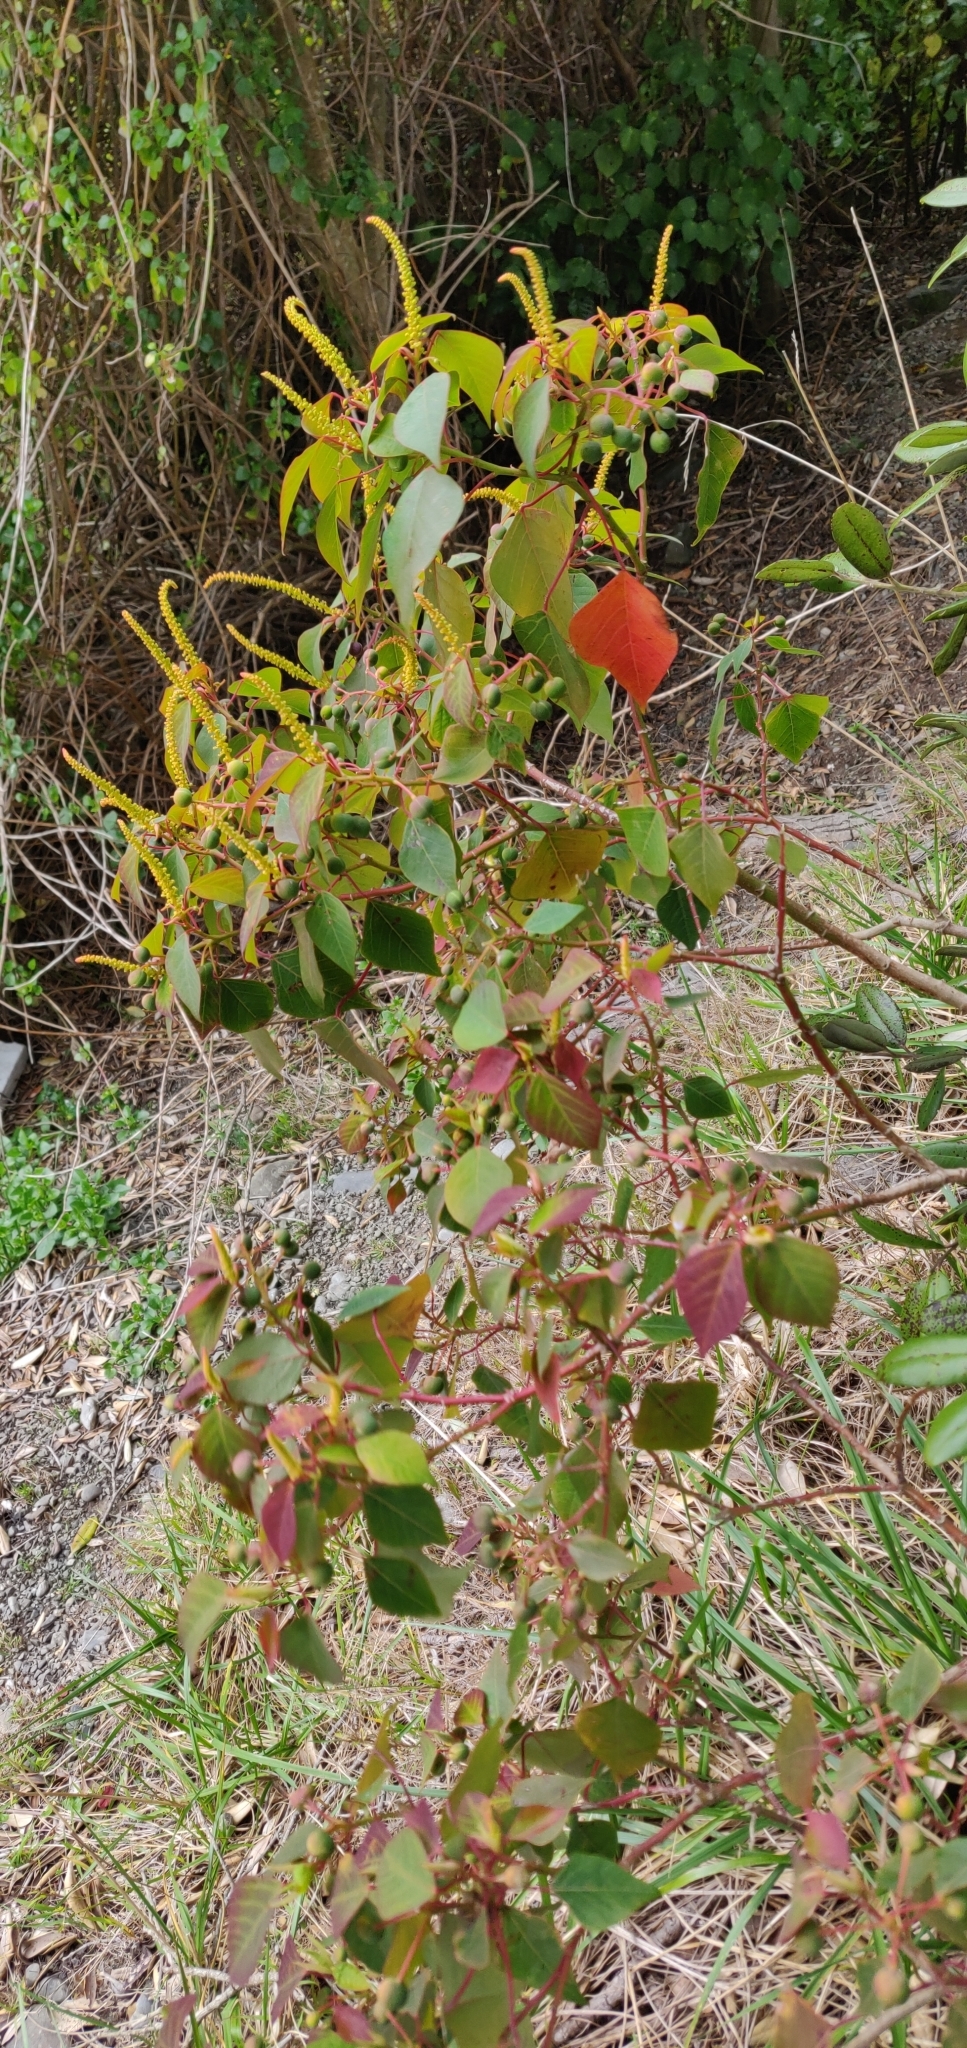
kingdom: Plantae
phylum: Tracheophyta
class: Magnoliopsida
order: Malpighiales
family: Euphorbiaceae
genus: Homalanthus
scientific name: Homalanthus populifolius
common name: Queensland poplar
